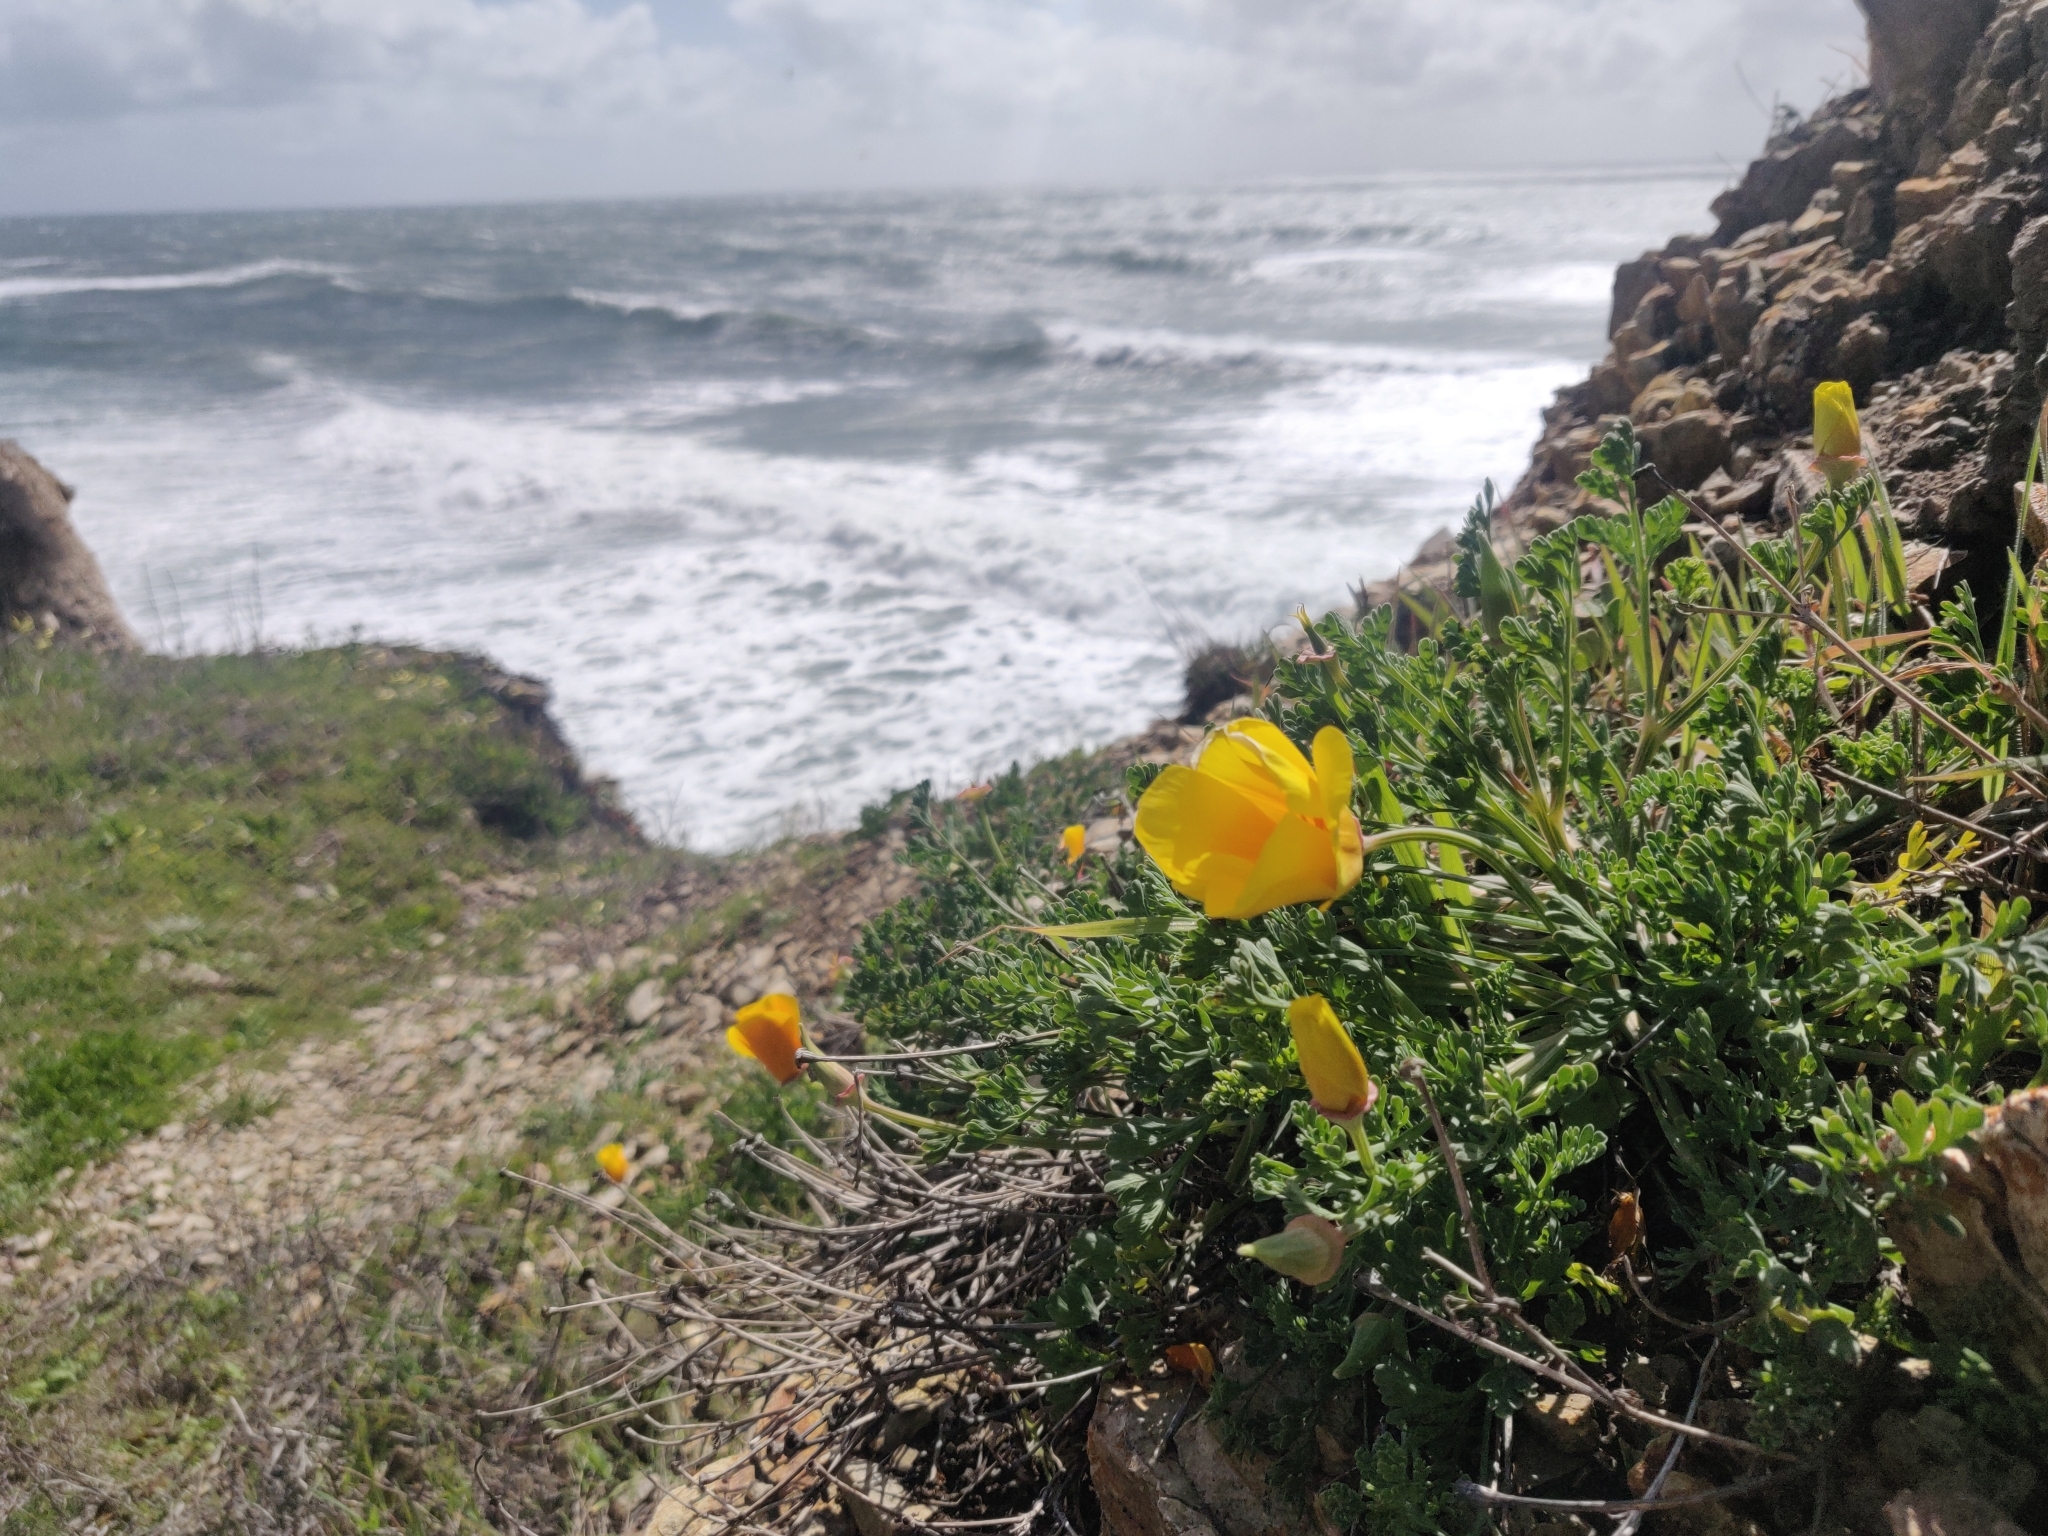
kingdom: Plantae
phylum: Tracheophyta
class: Magnoliopsida
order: Ranunculales
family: Papaveraceae
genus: Eschscholzia
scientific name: Eschscholzia californica
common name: California poppy
